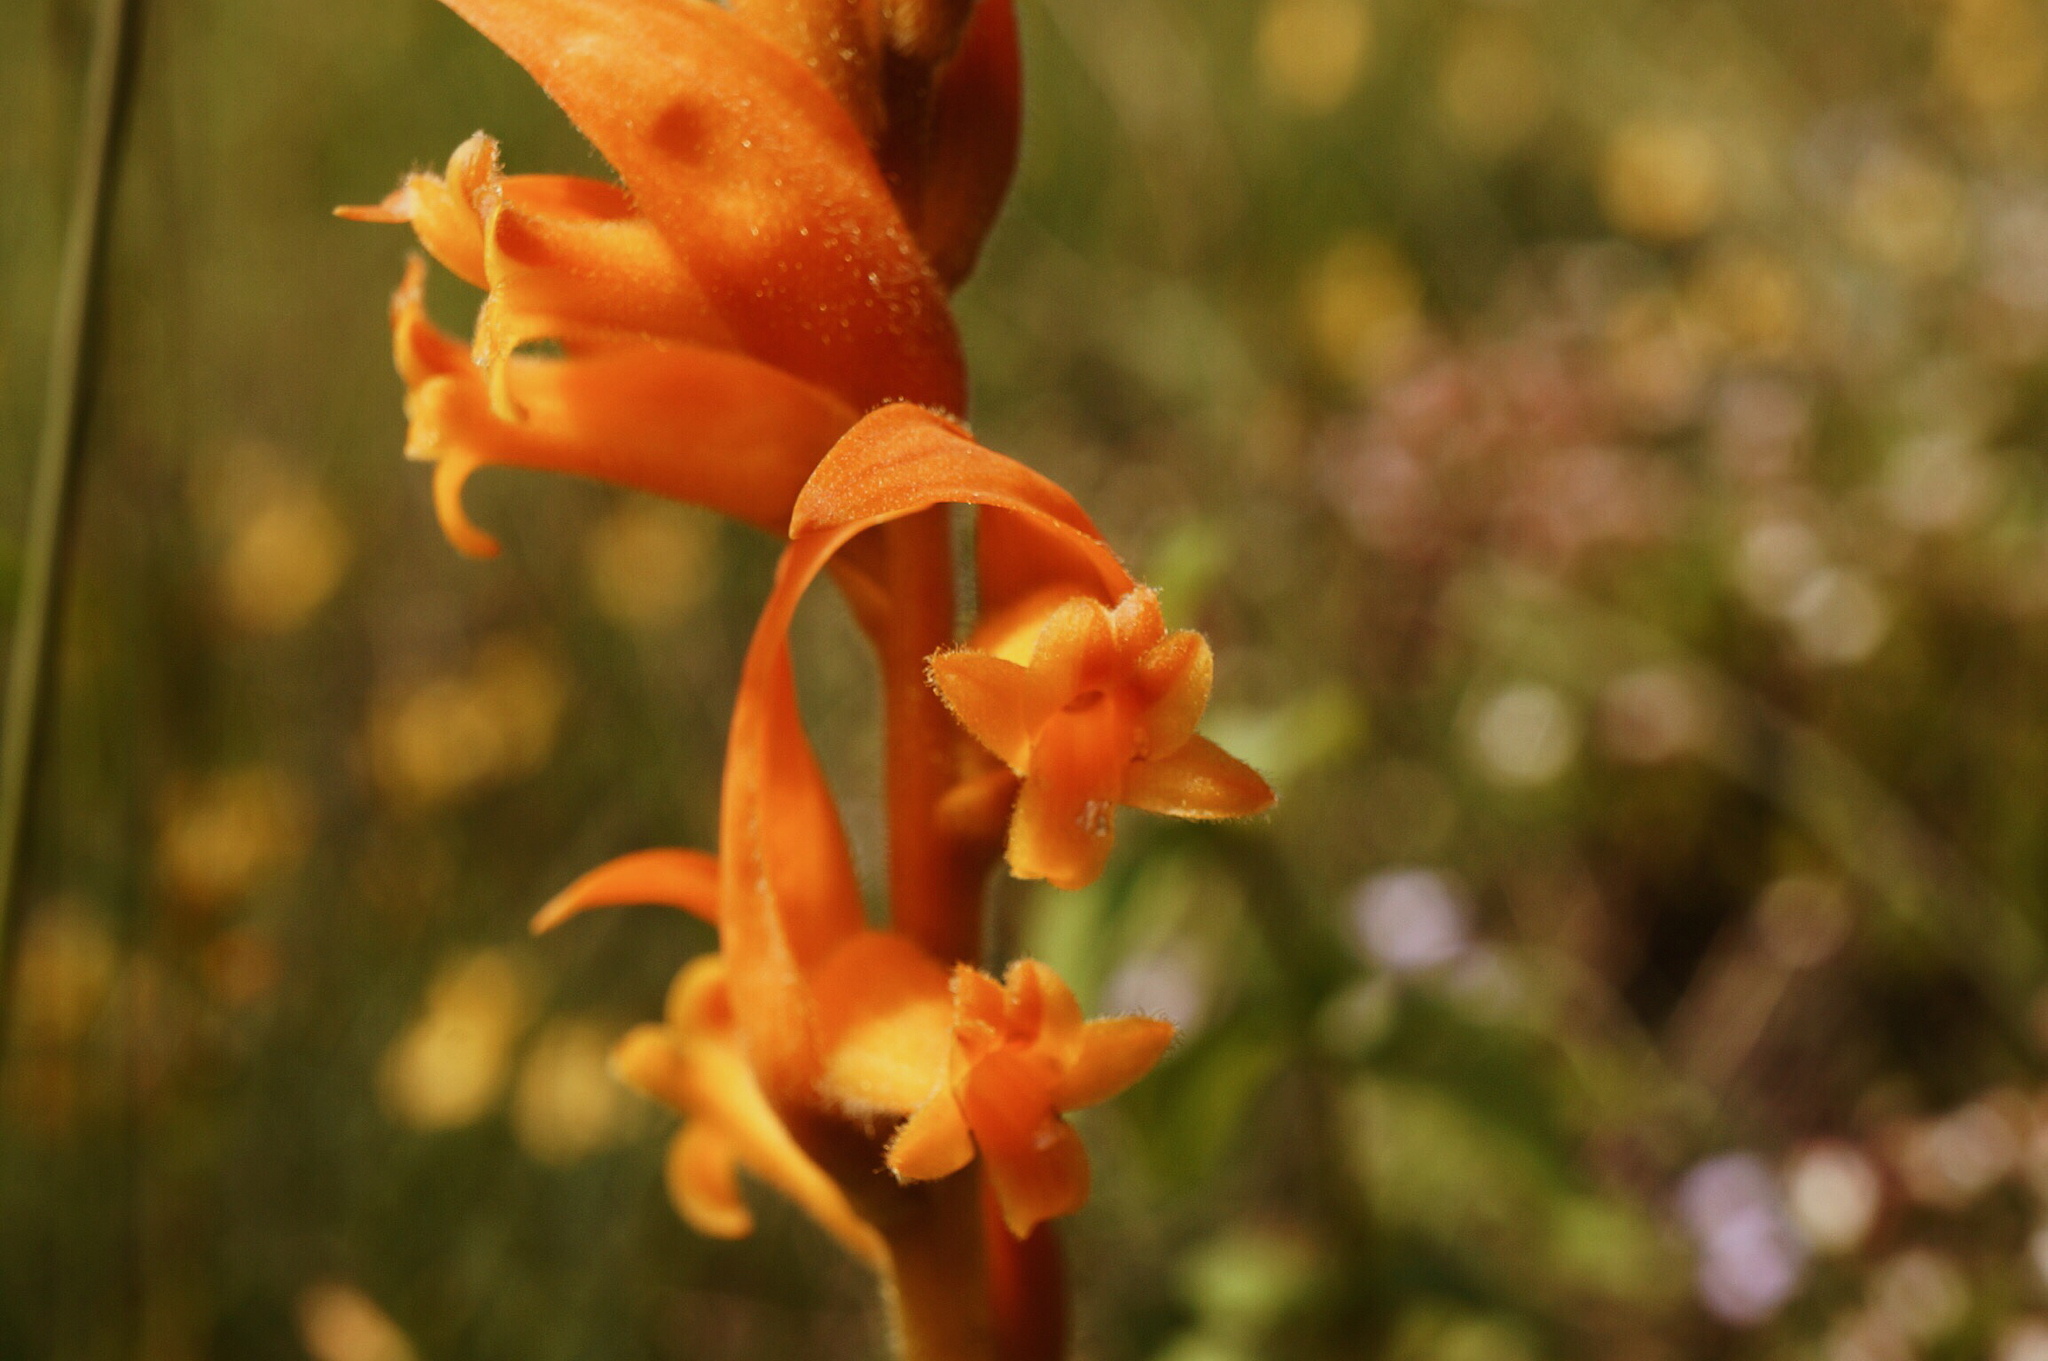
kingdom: Plantae
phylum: Tracheophyta
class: Liliopsida
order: Asparagales
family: Orchidaceae
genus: Dichromanthus
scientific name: Dichromanthus aurantiacus
